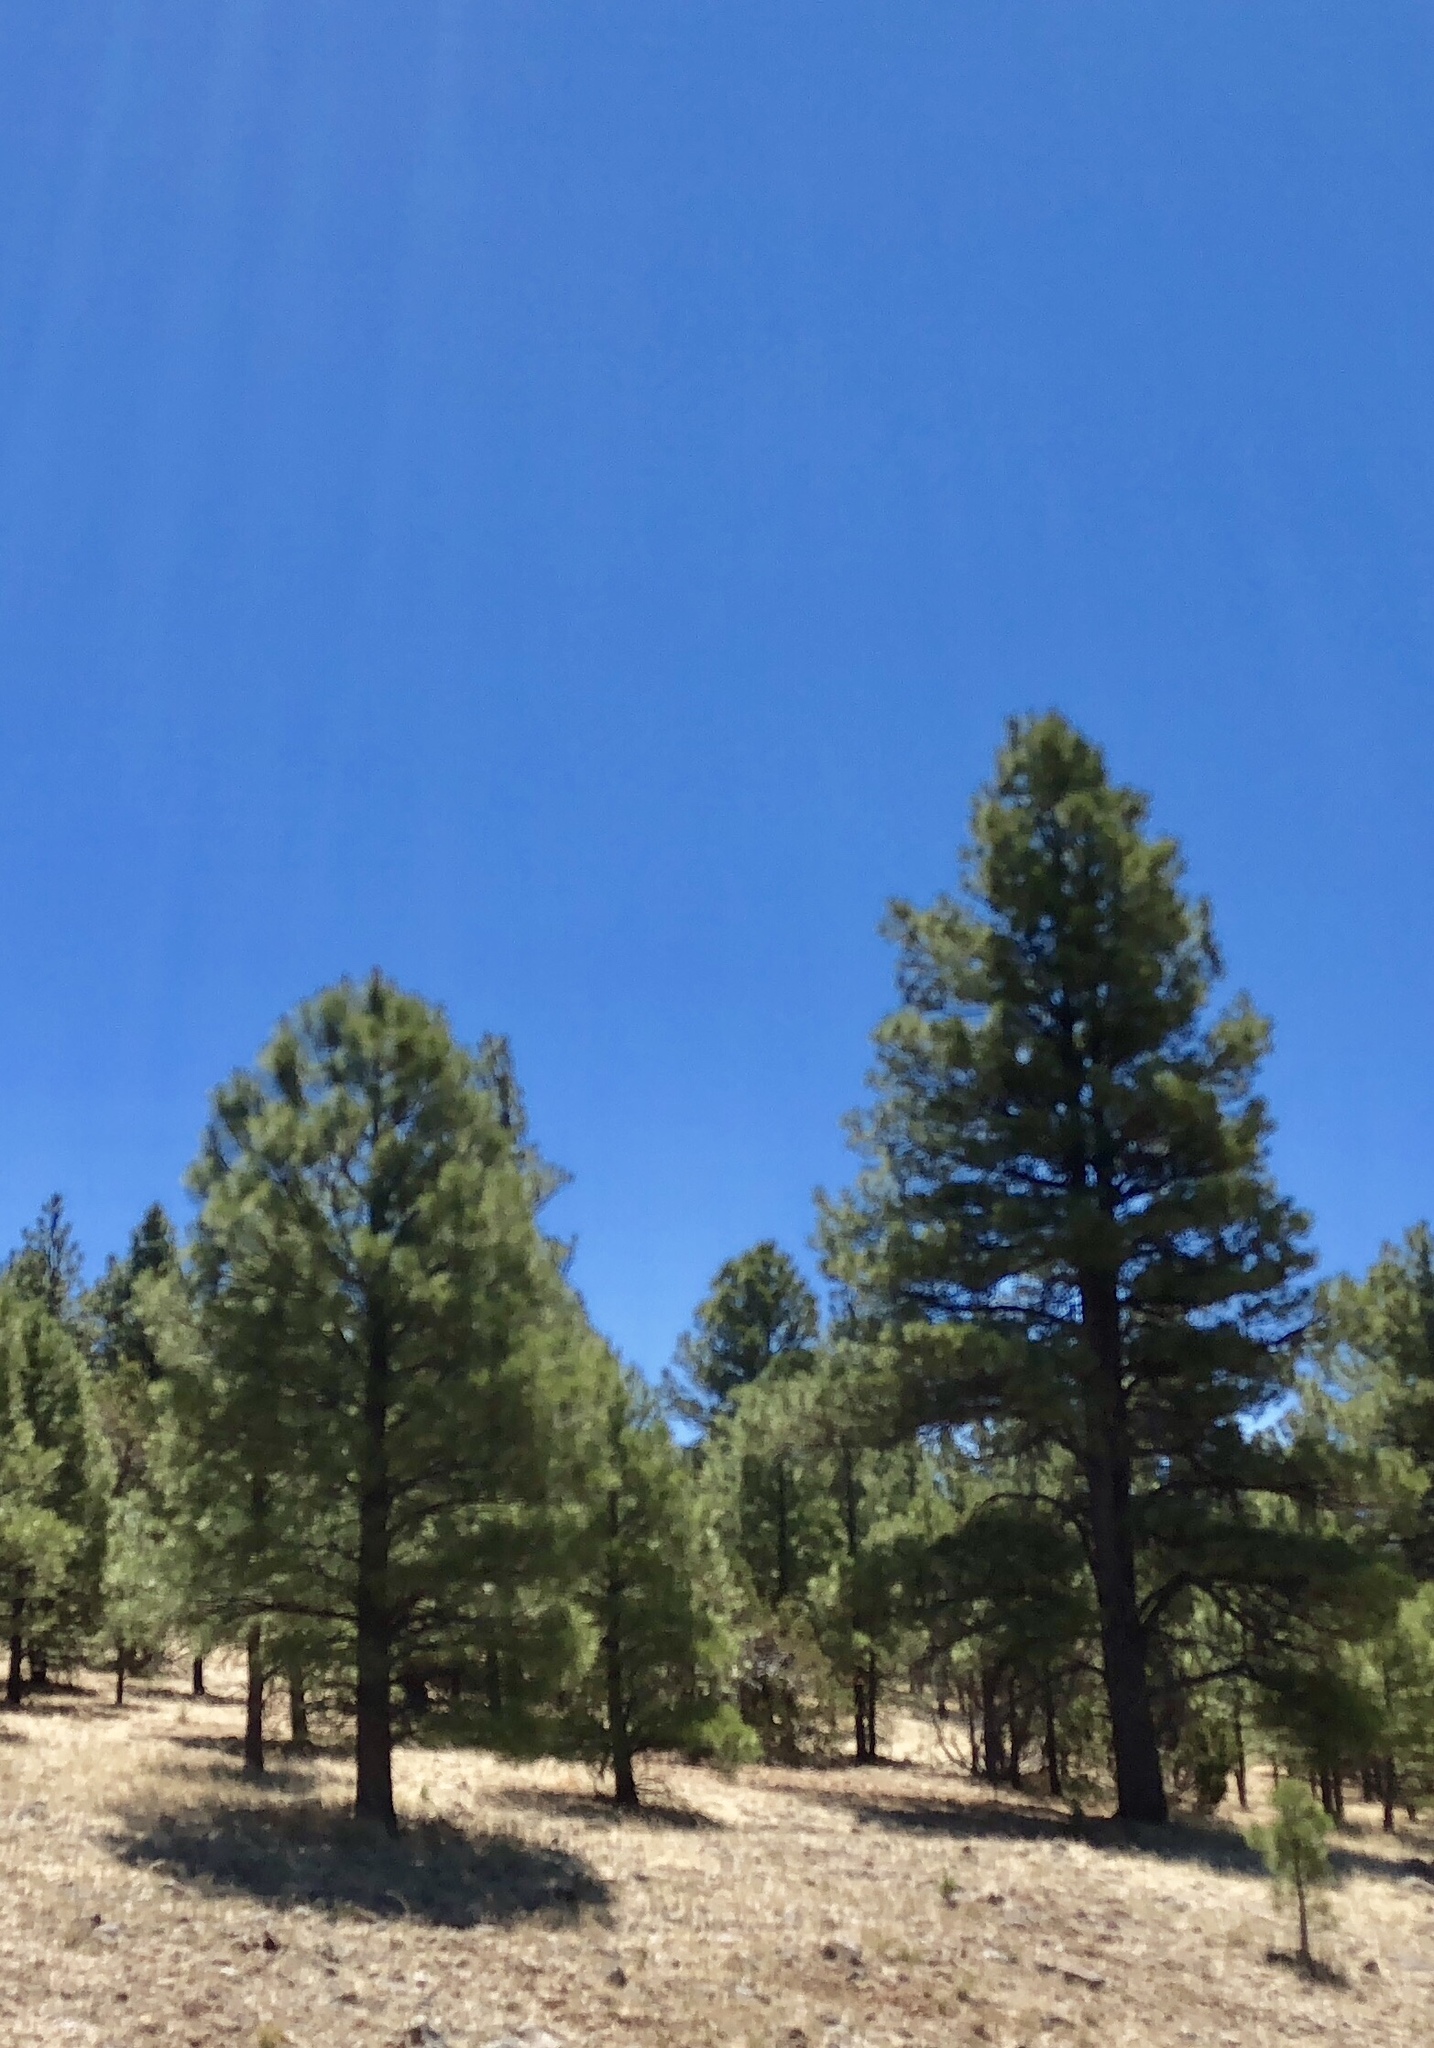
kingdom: Plantae
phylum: Tracheophyta
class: Pinopsida
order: Pinales
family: Pinaceae
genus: Pinus
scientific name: Pinus ponderosa
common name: Western yellow-pine
